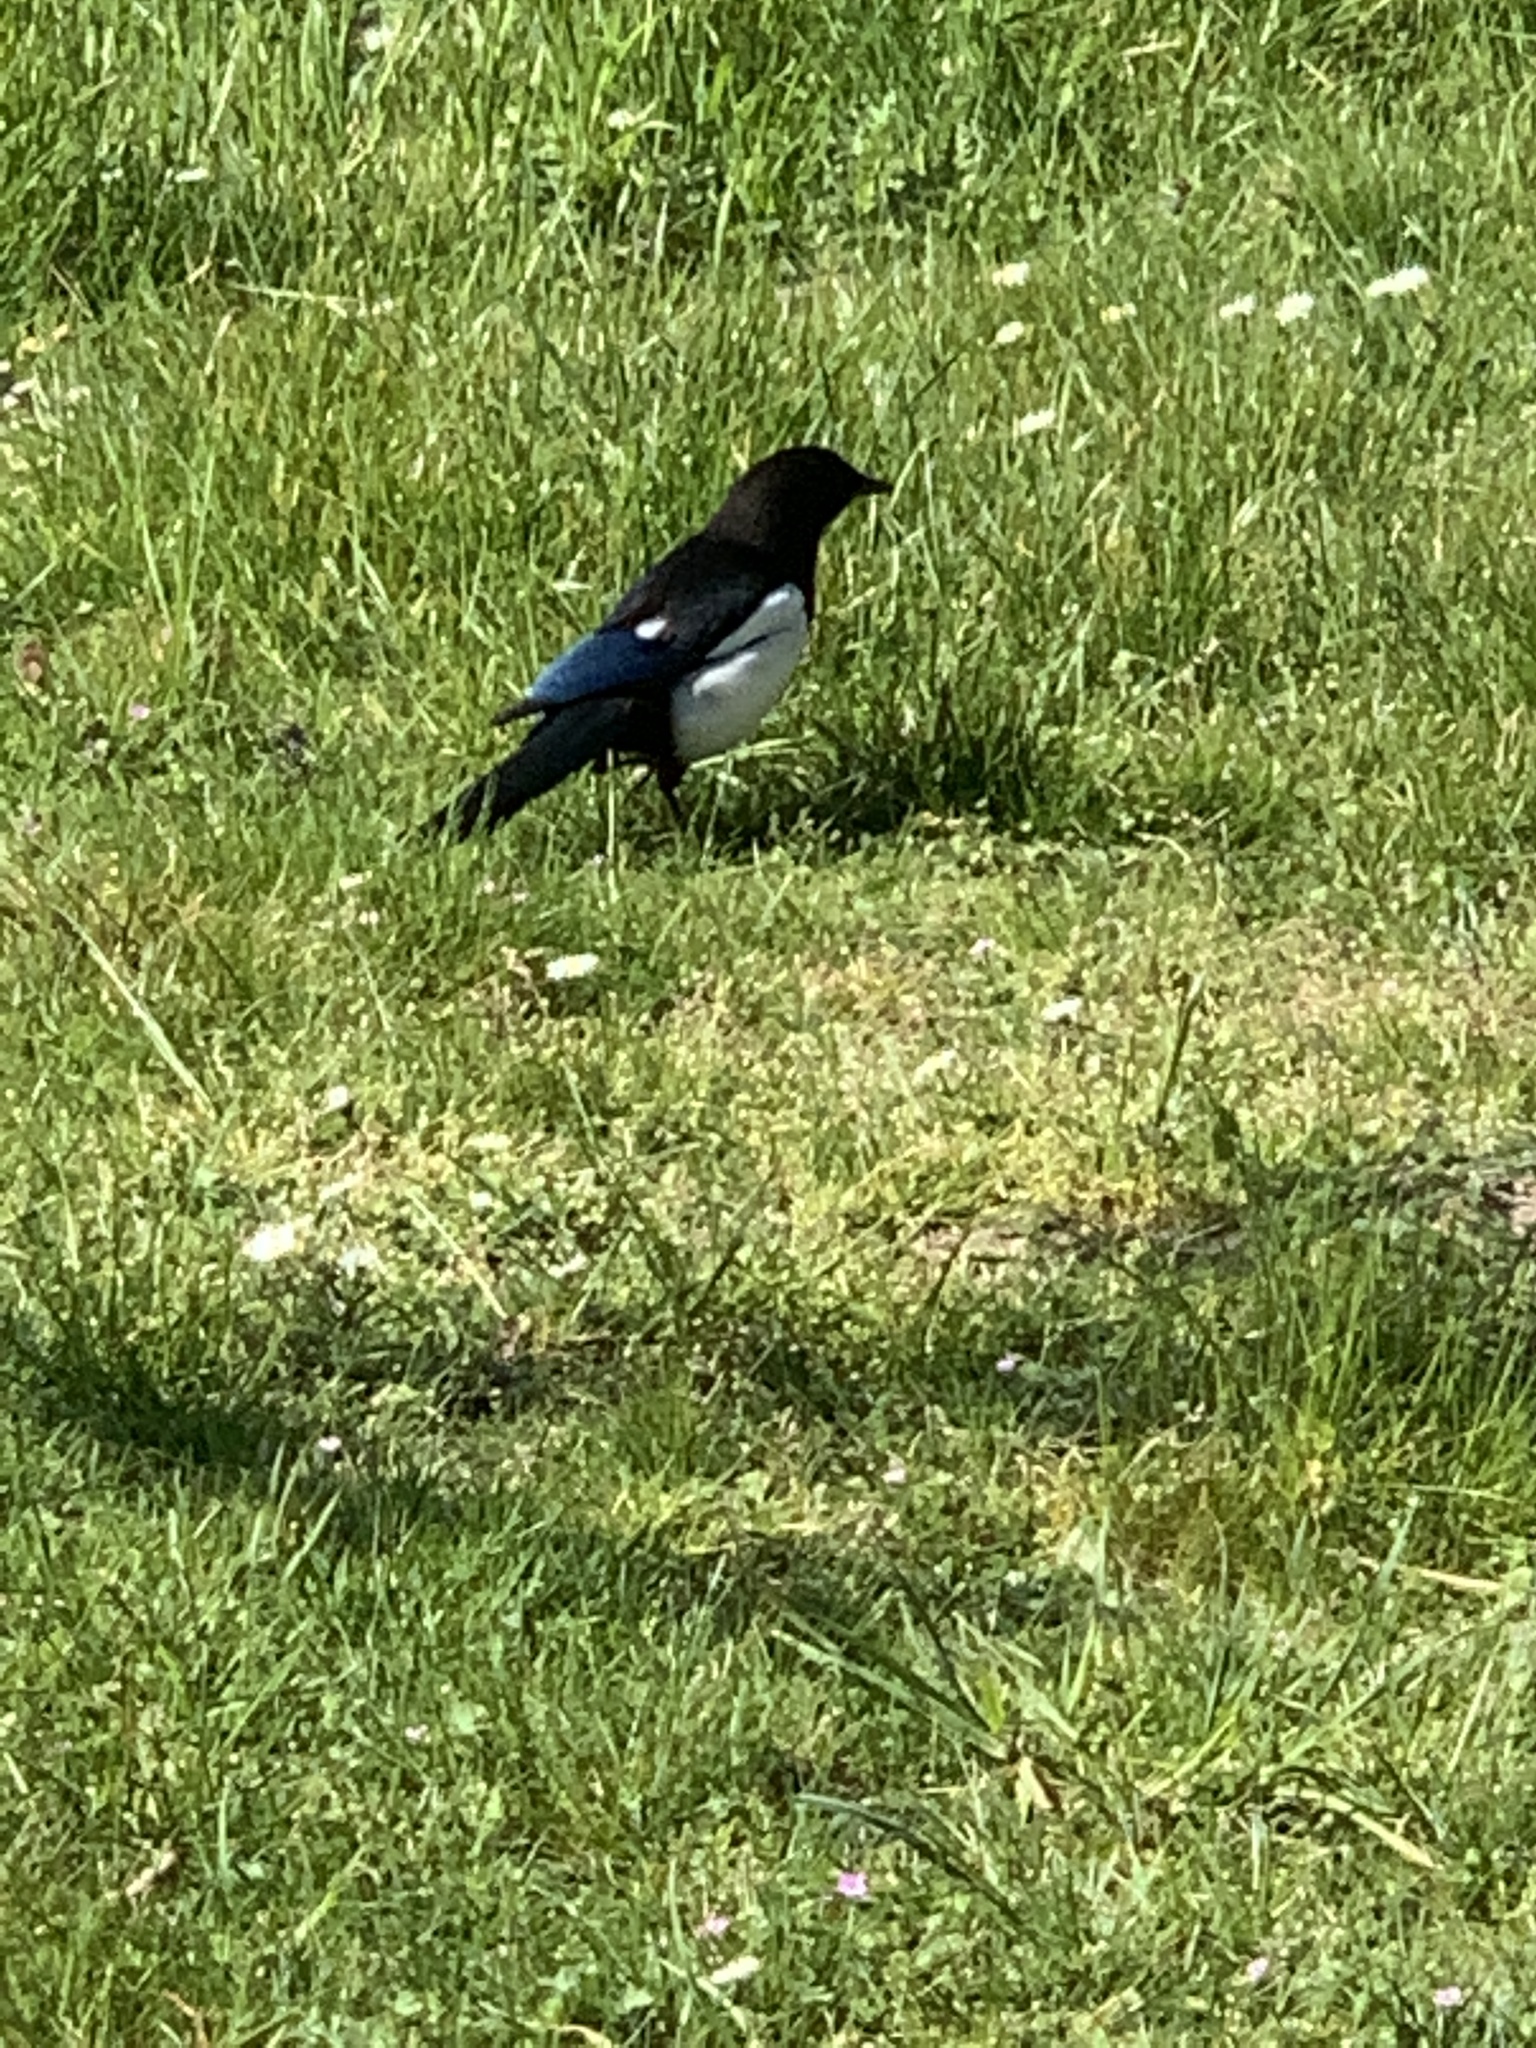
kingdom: Animalia
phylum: Chordata
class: Aves
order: Passeriformes
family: Corvidae
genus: Pica
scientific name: Pica pica
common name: Eurasian magpie
